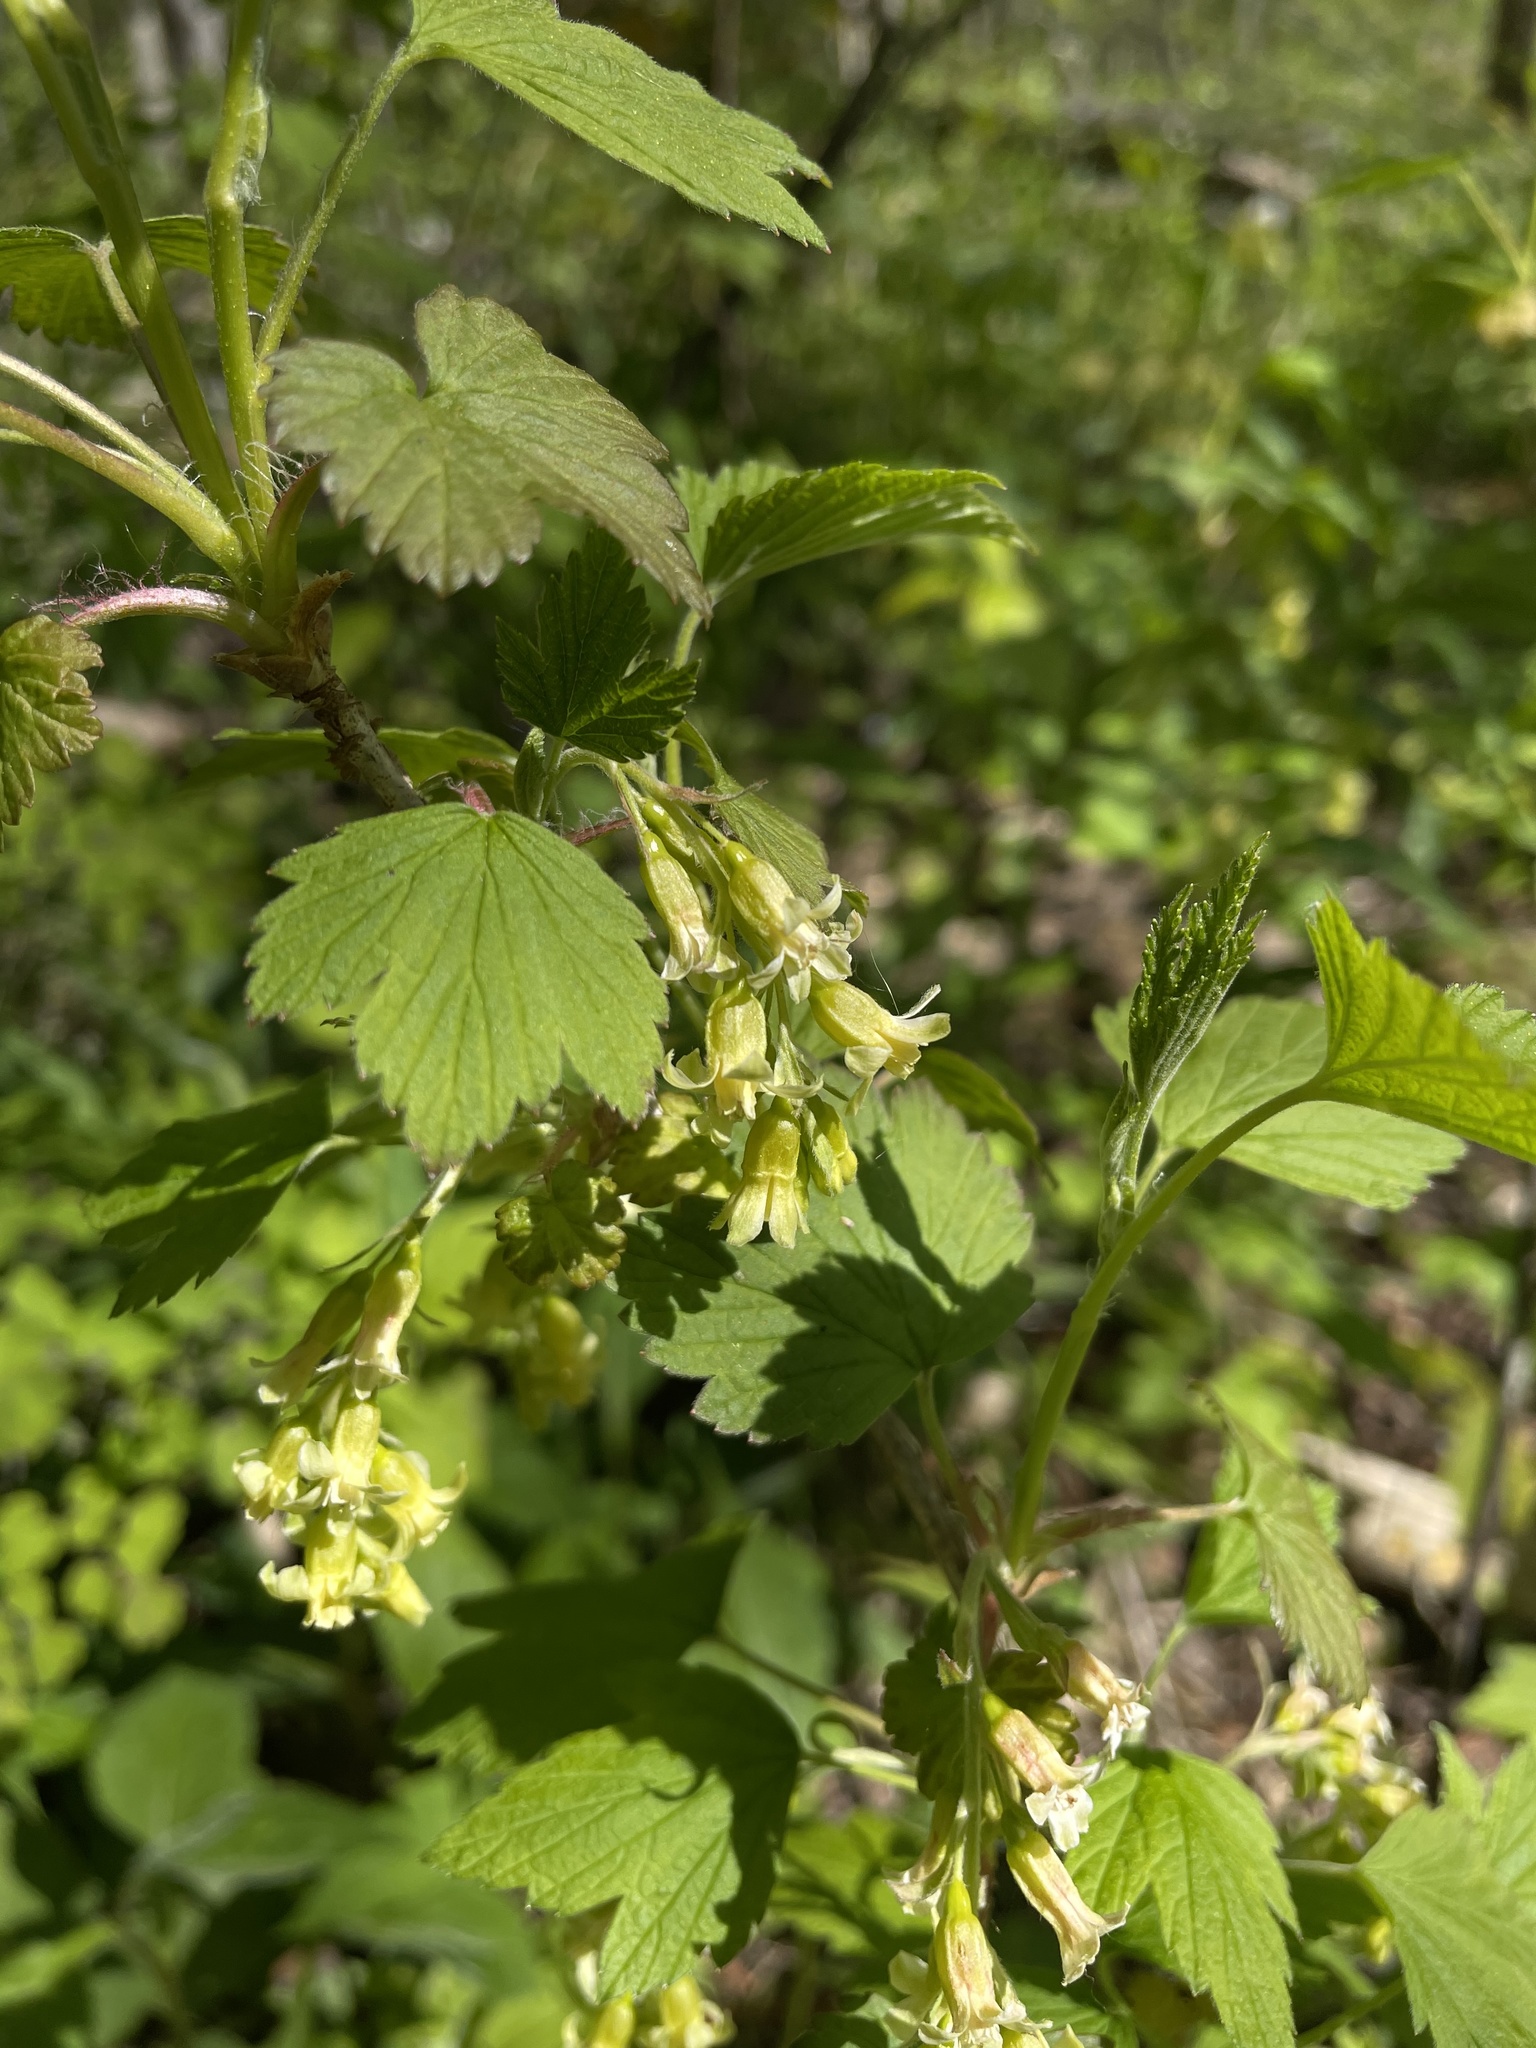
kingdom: Plantae
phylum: Tracheophyta
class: Magnoliopsida
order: Saxifragales
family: Grossulariaceae
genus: Ribes
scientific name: Ribes americanum
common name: American black currant
